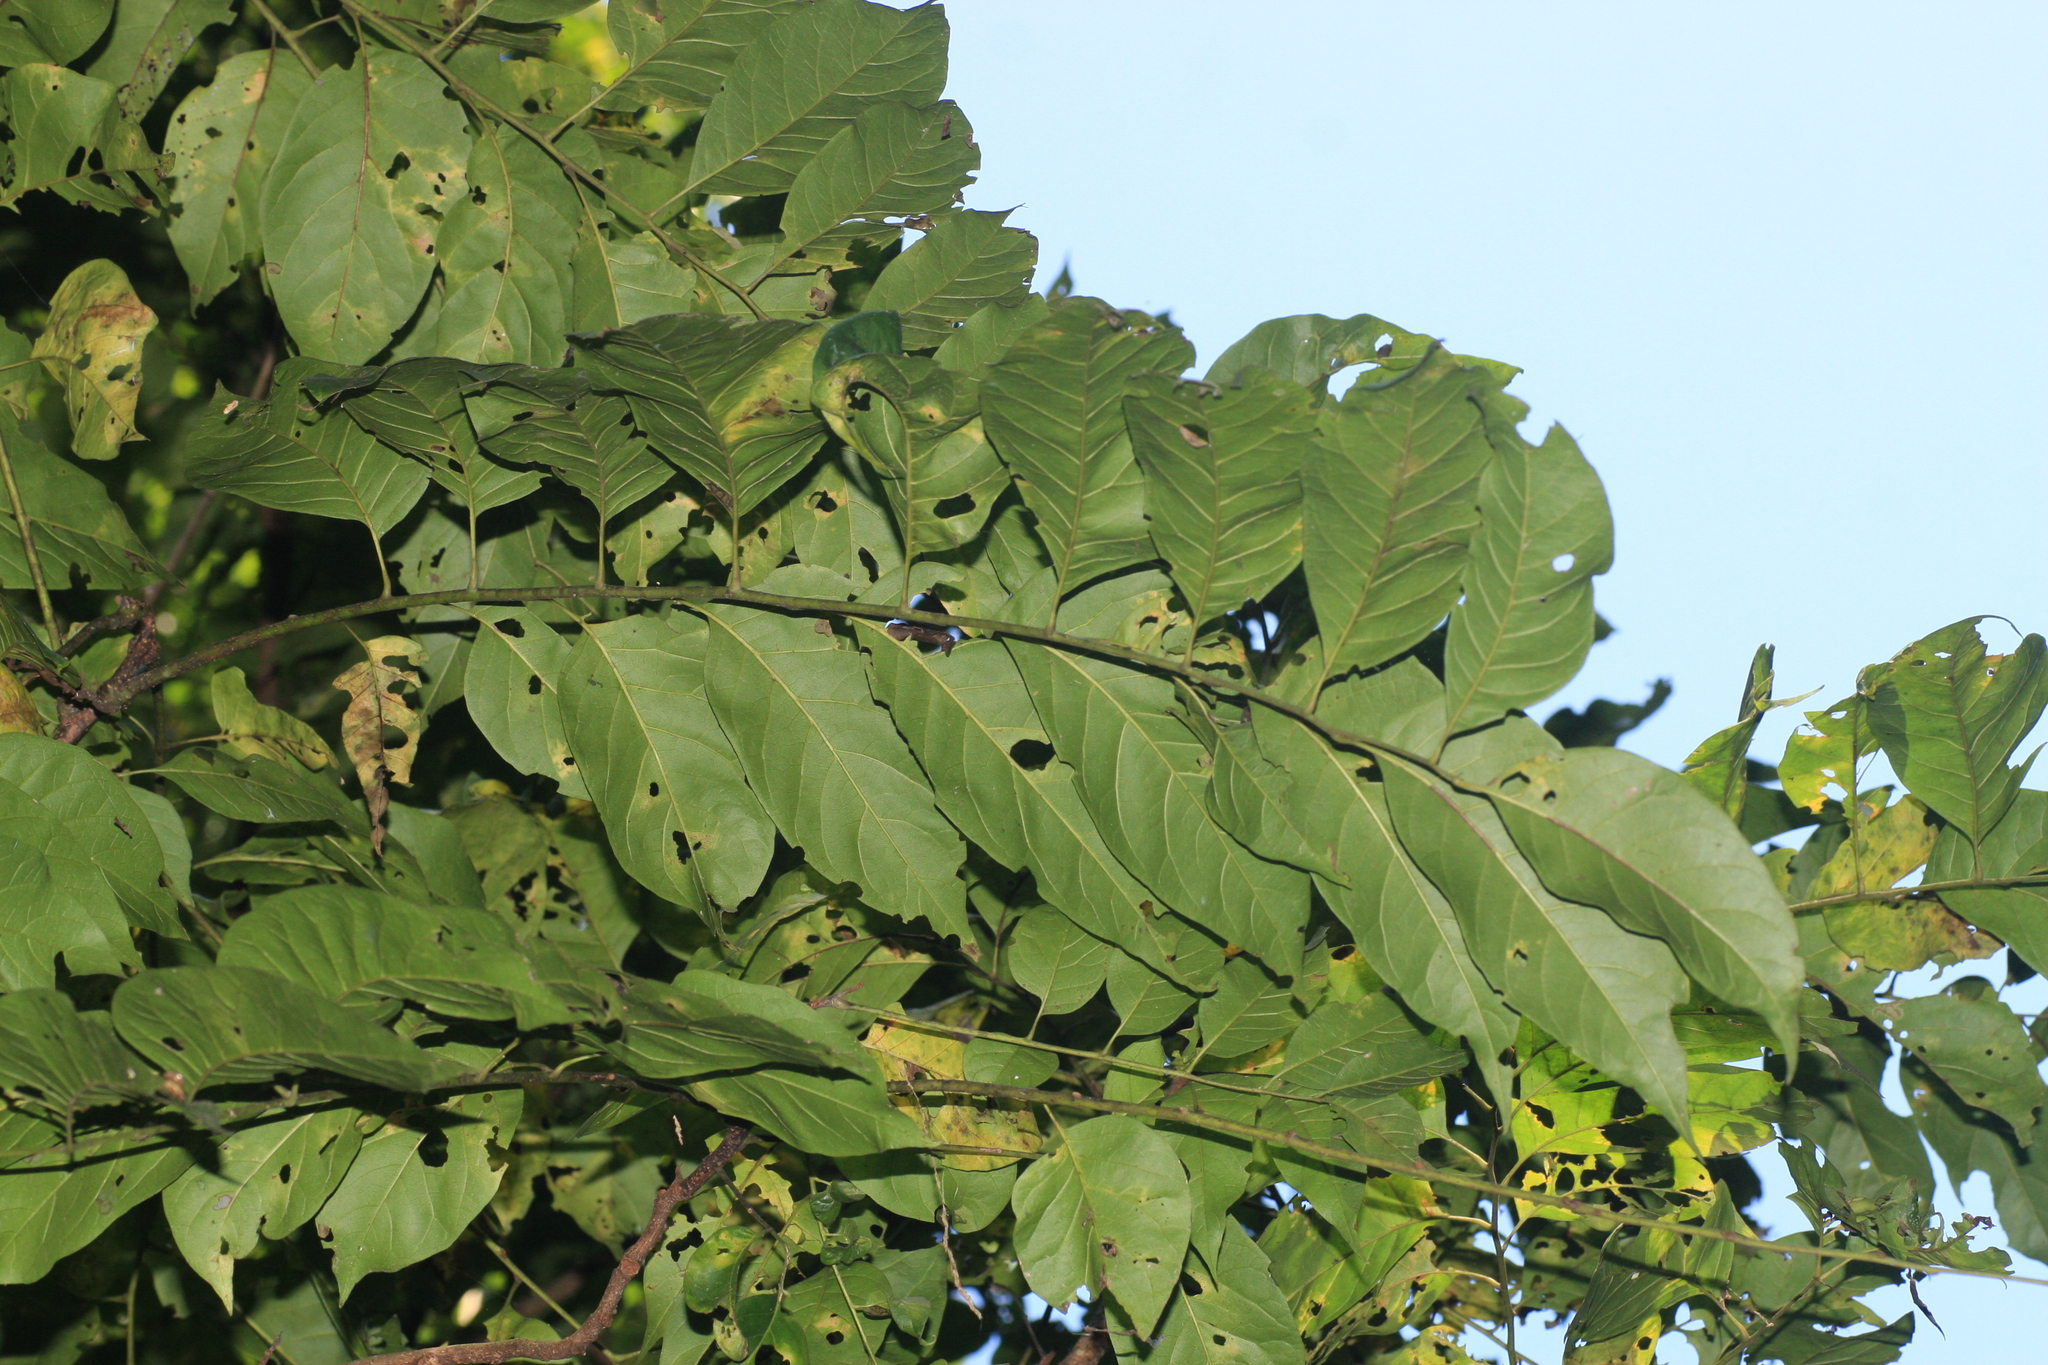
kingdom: Plantae
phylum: Tracheophyta
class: Magnoliopsida
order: Sapindales
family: Meliaceae
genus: Chukrasia
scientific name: Chukrasia tabularis
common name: Chittagong wood
